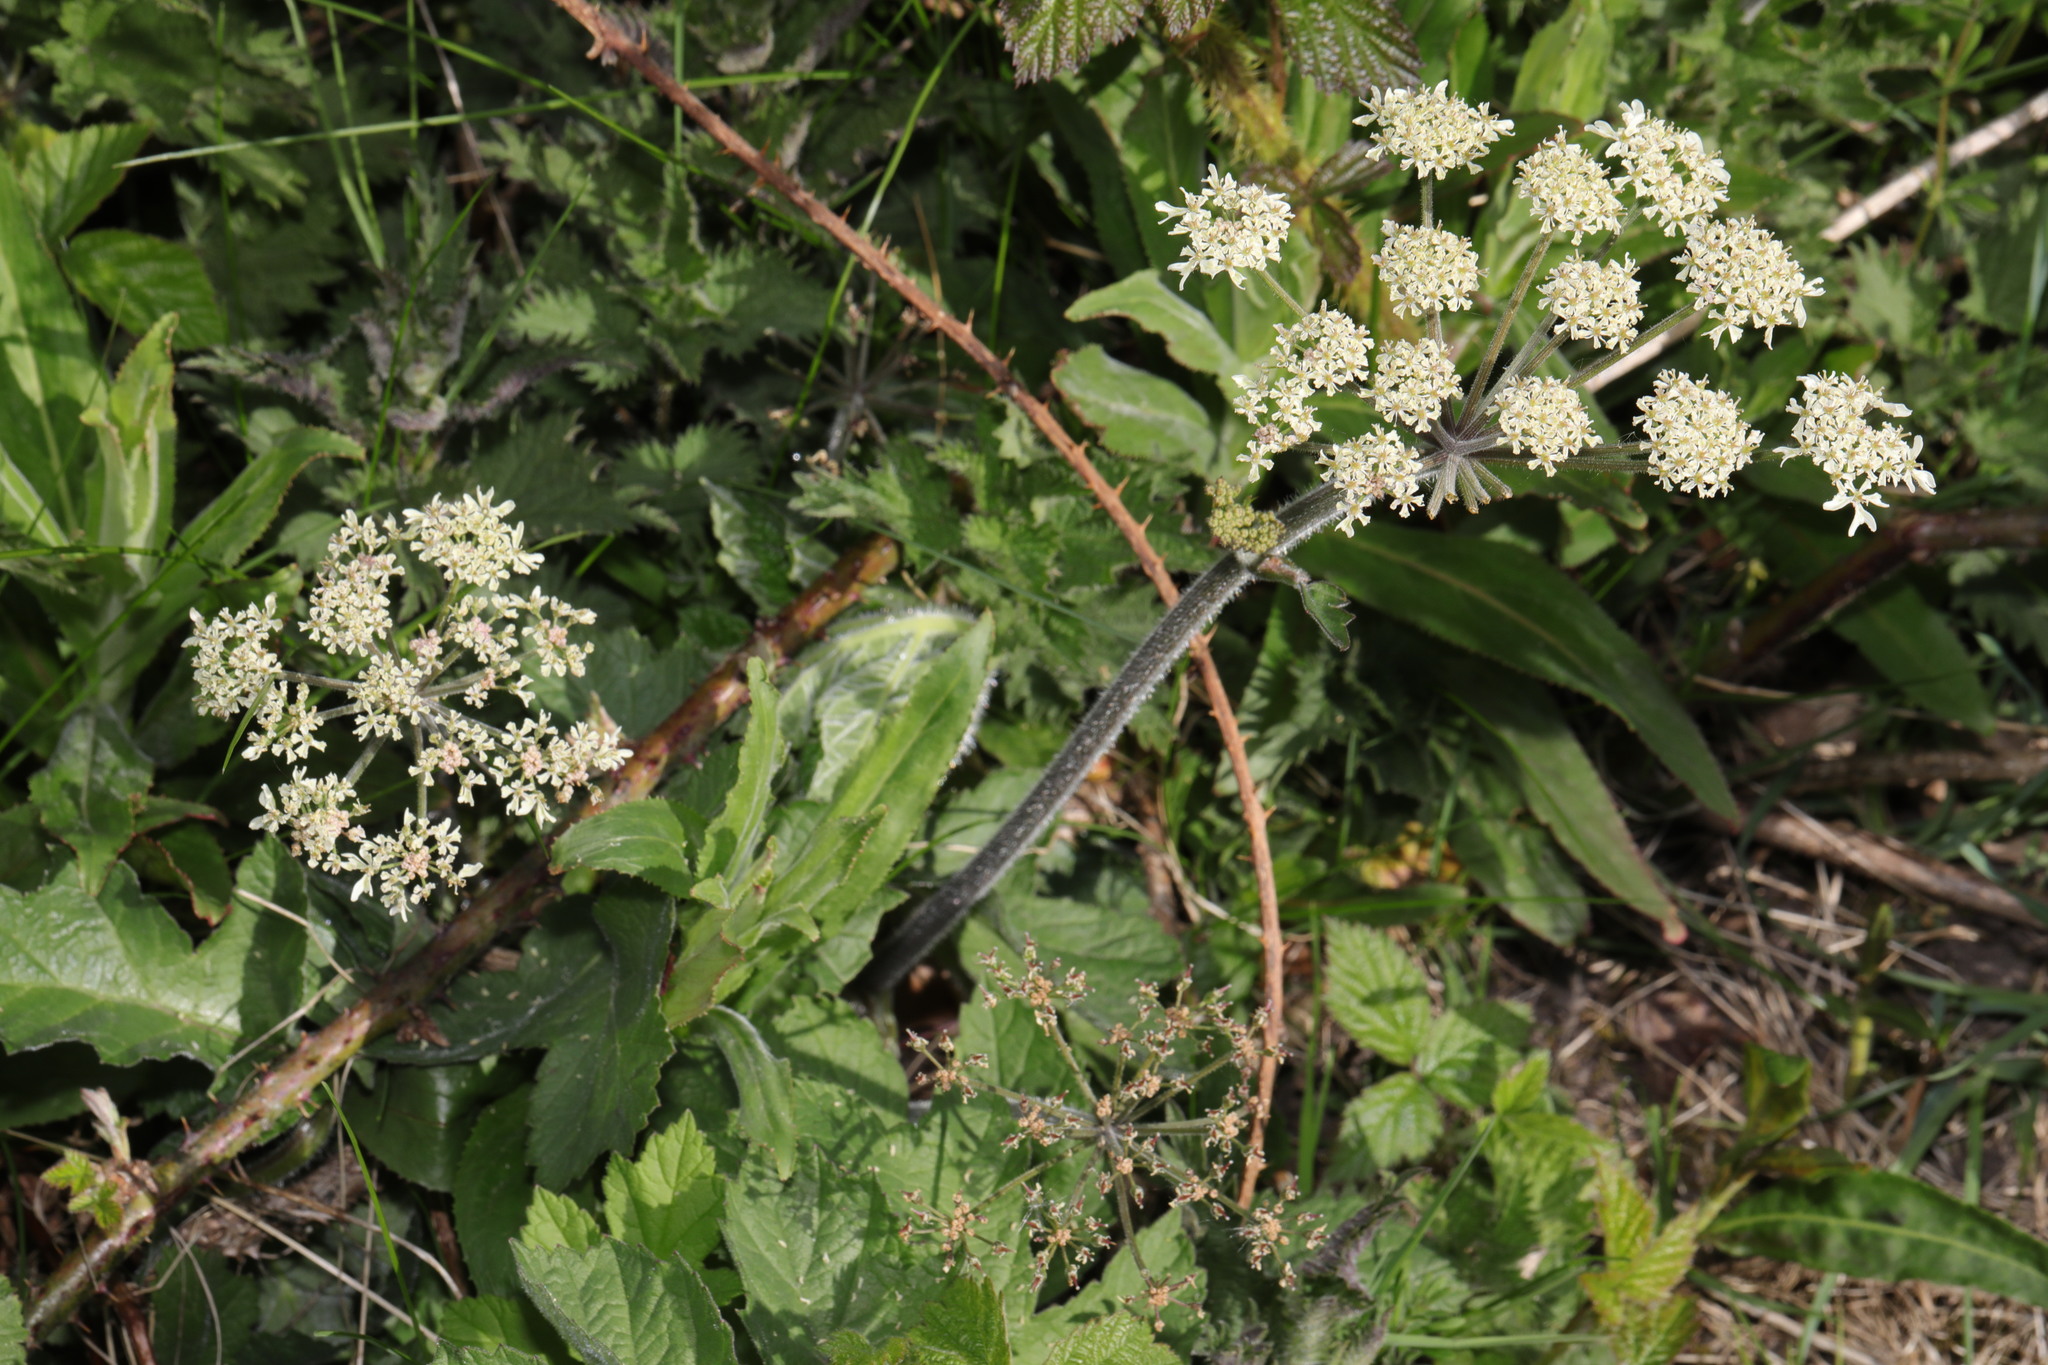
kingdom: Plantae
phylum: Tracheophyta
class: Magnoliopsida
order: Apiales
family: Apiaceae
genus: Heracleum
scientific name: Heracleum sphondylium
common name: Hogweed
